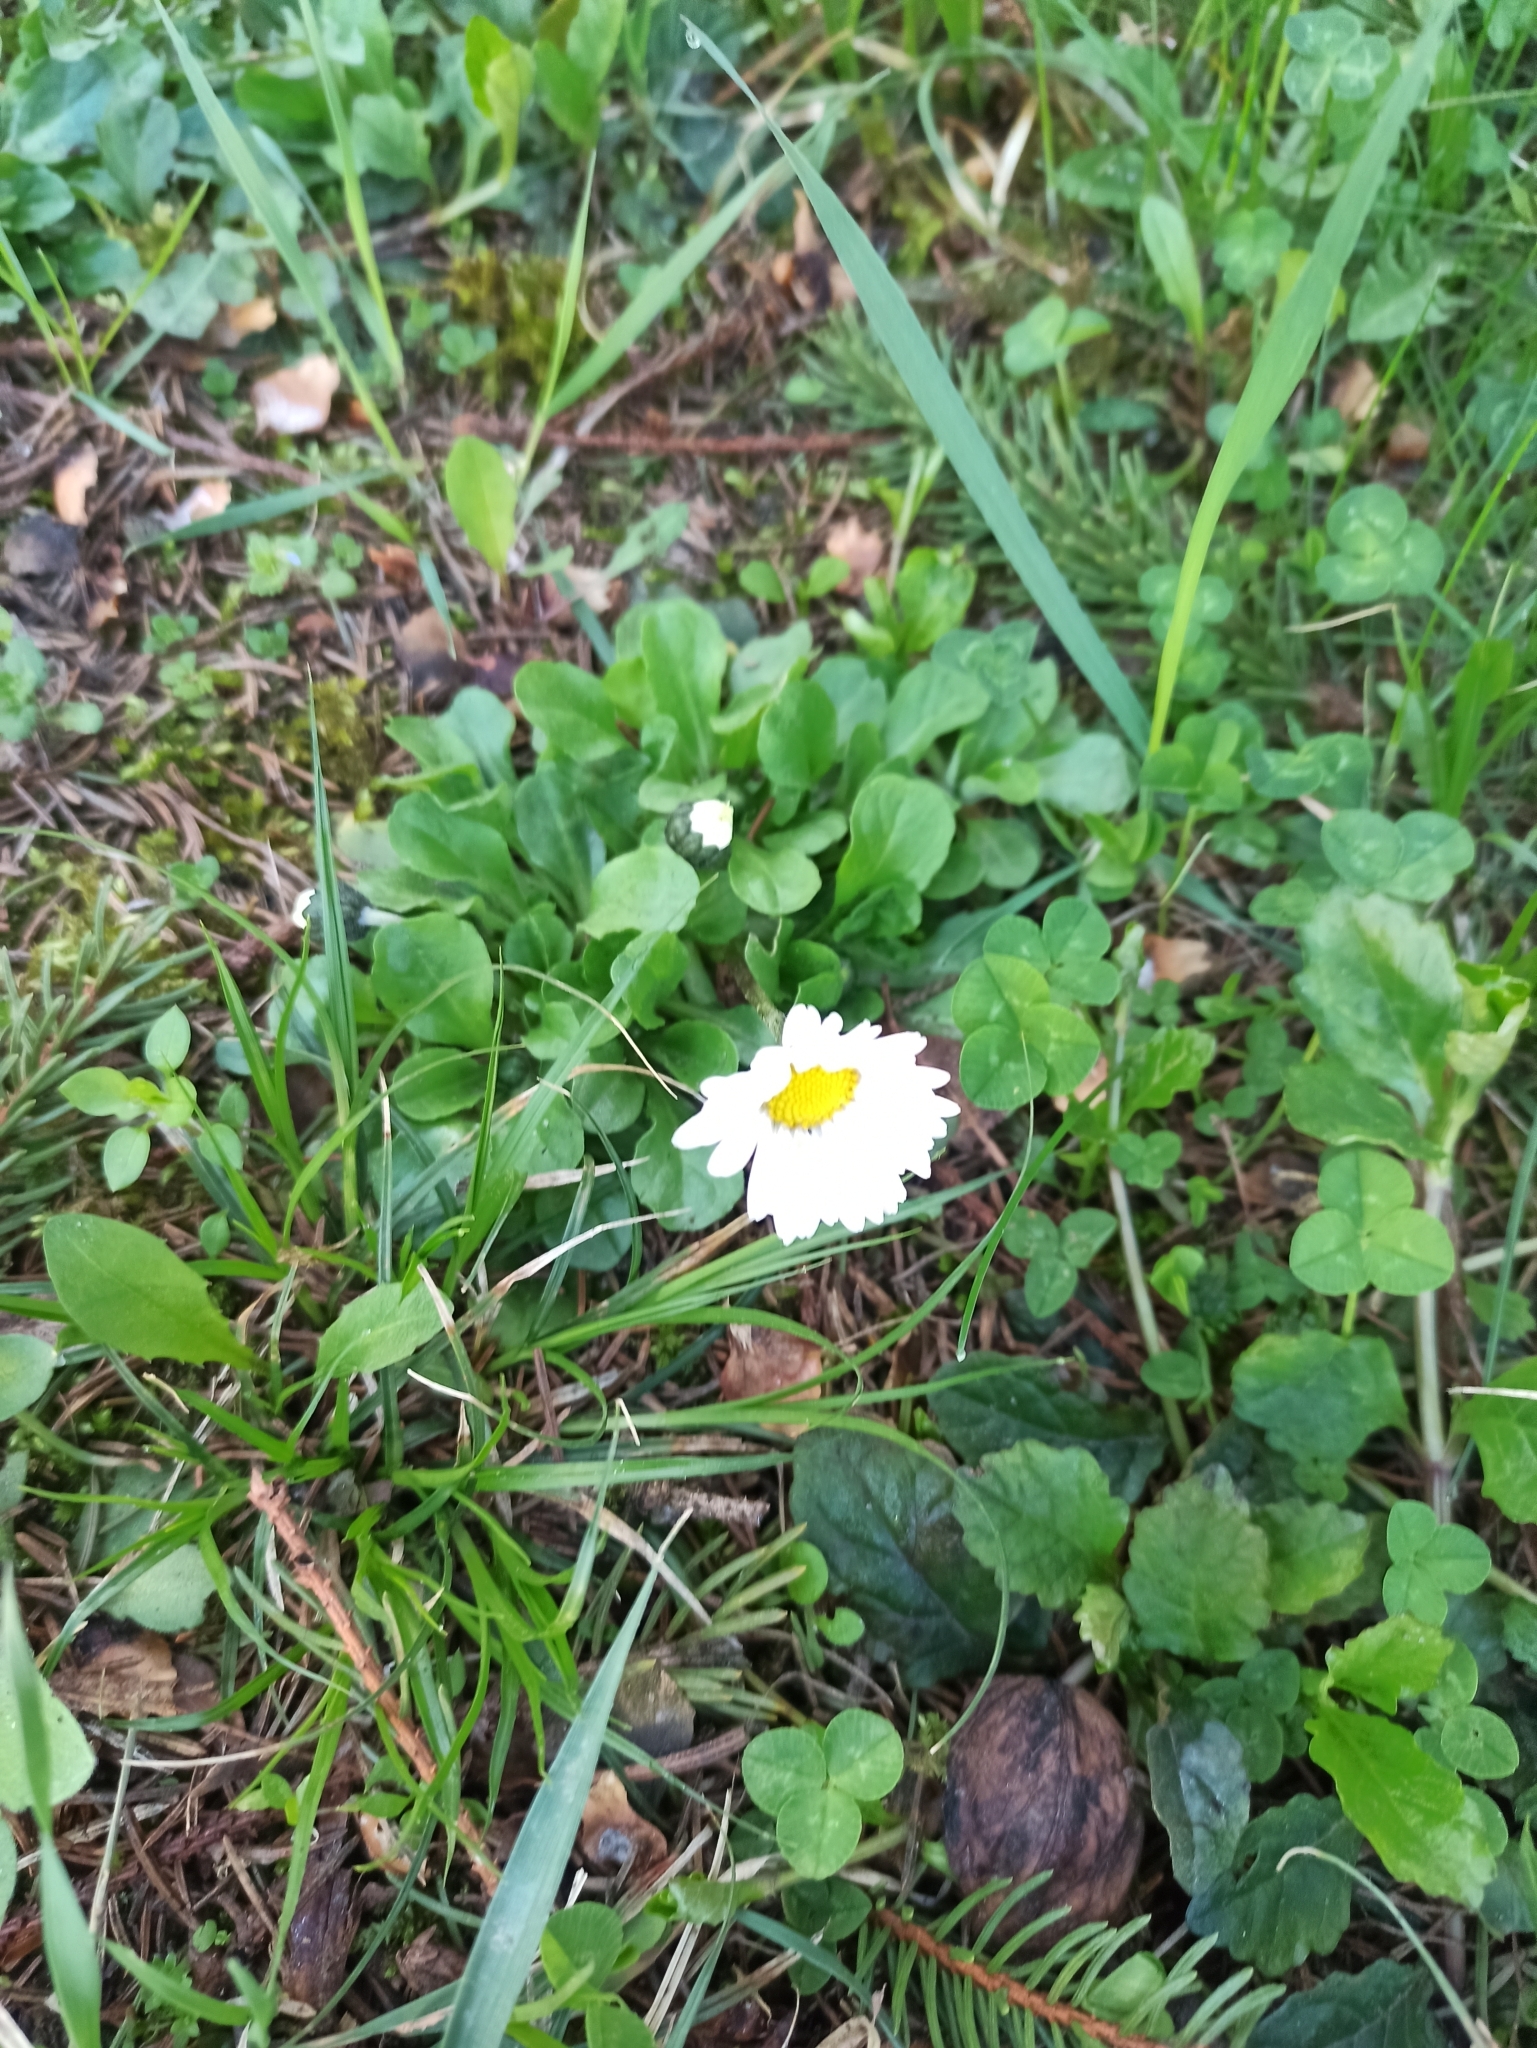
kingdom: Plantae
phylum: Tracheophyta
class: Magnoliopsida
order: Asterales
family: Asteraceae
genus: Bellis
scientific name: Bellis perennis
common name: Lawndaisy
